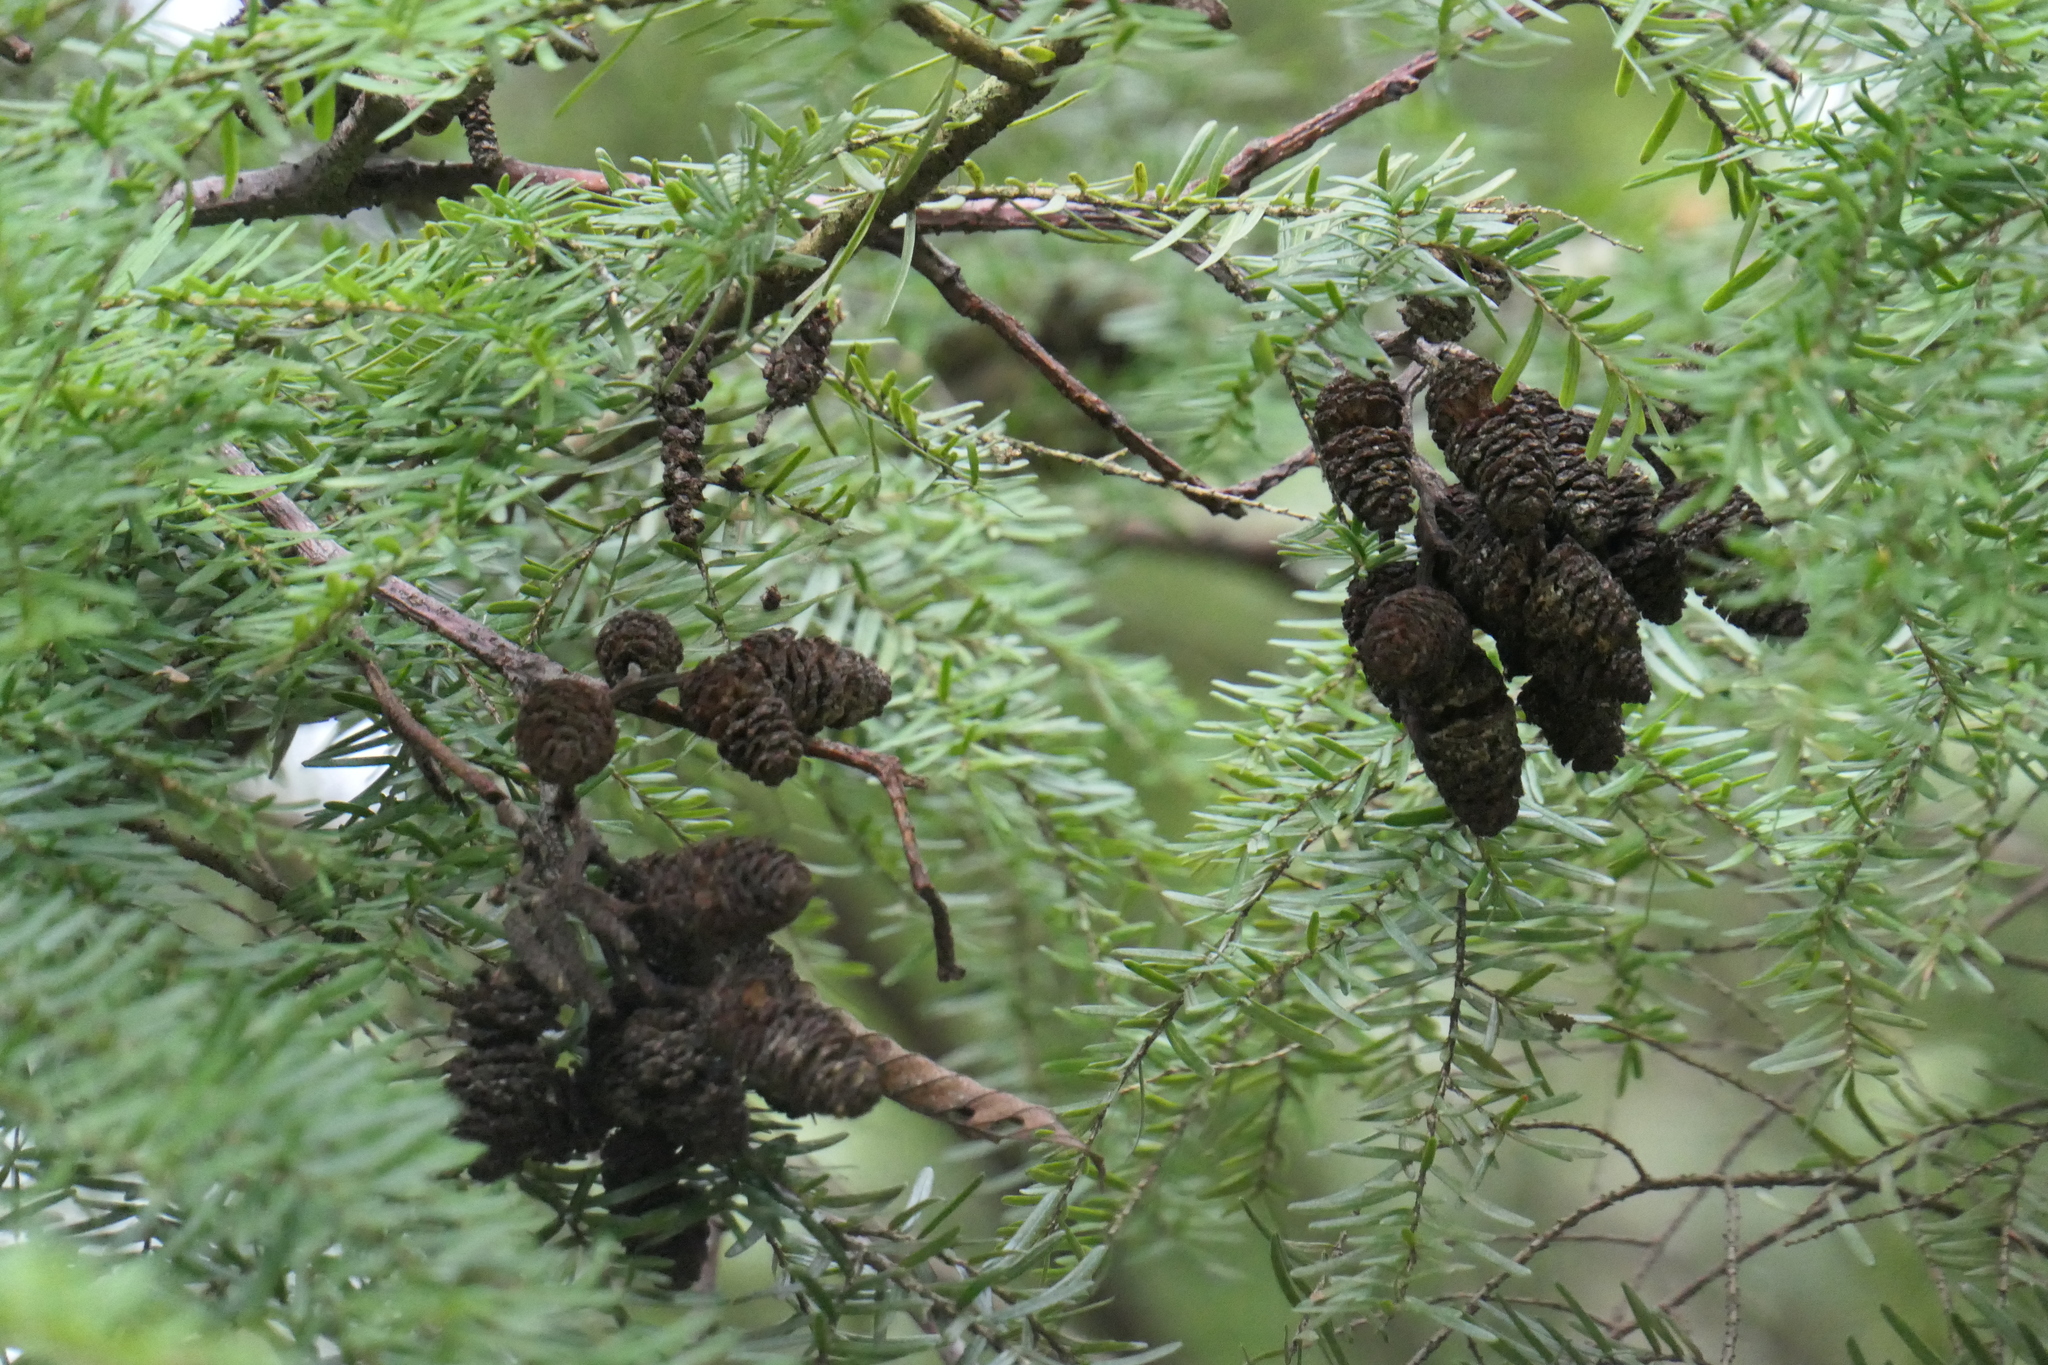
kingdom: Plantae
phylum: Tracheophyta
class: Pinopsida
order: Pinales
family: Pinaceae
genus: Tsuga
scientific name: Tsuga heterophylla
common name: Western hemlock
